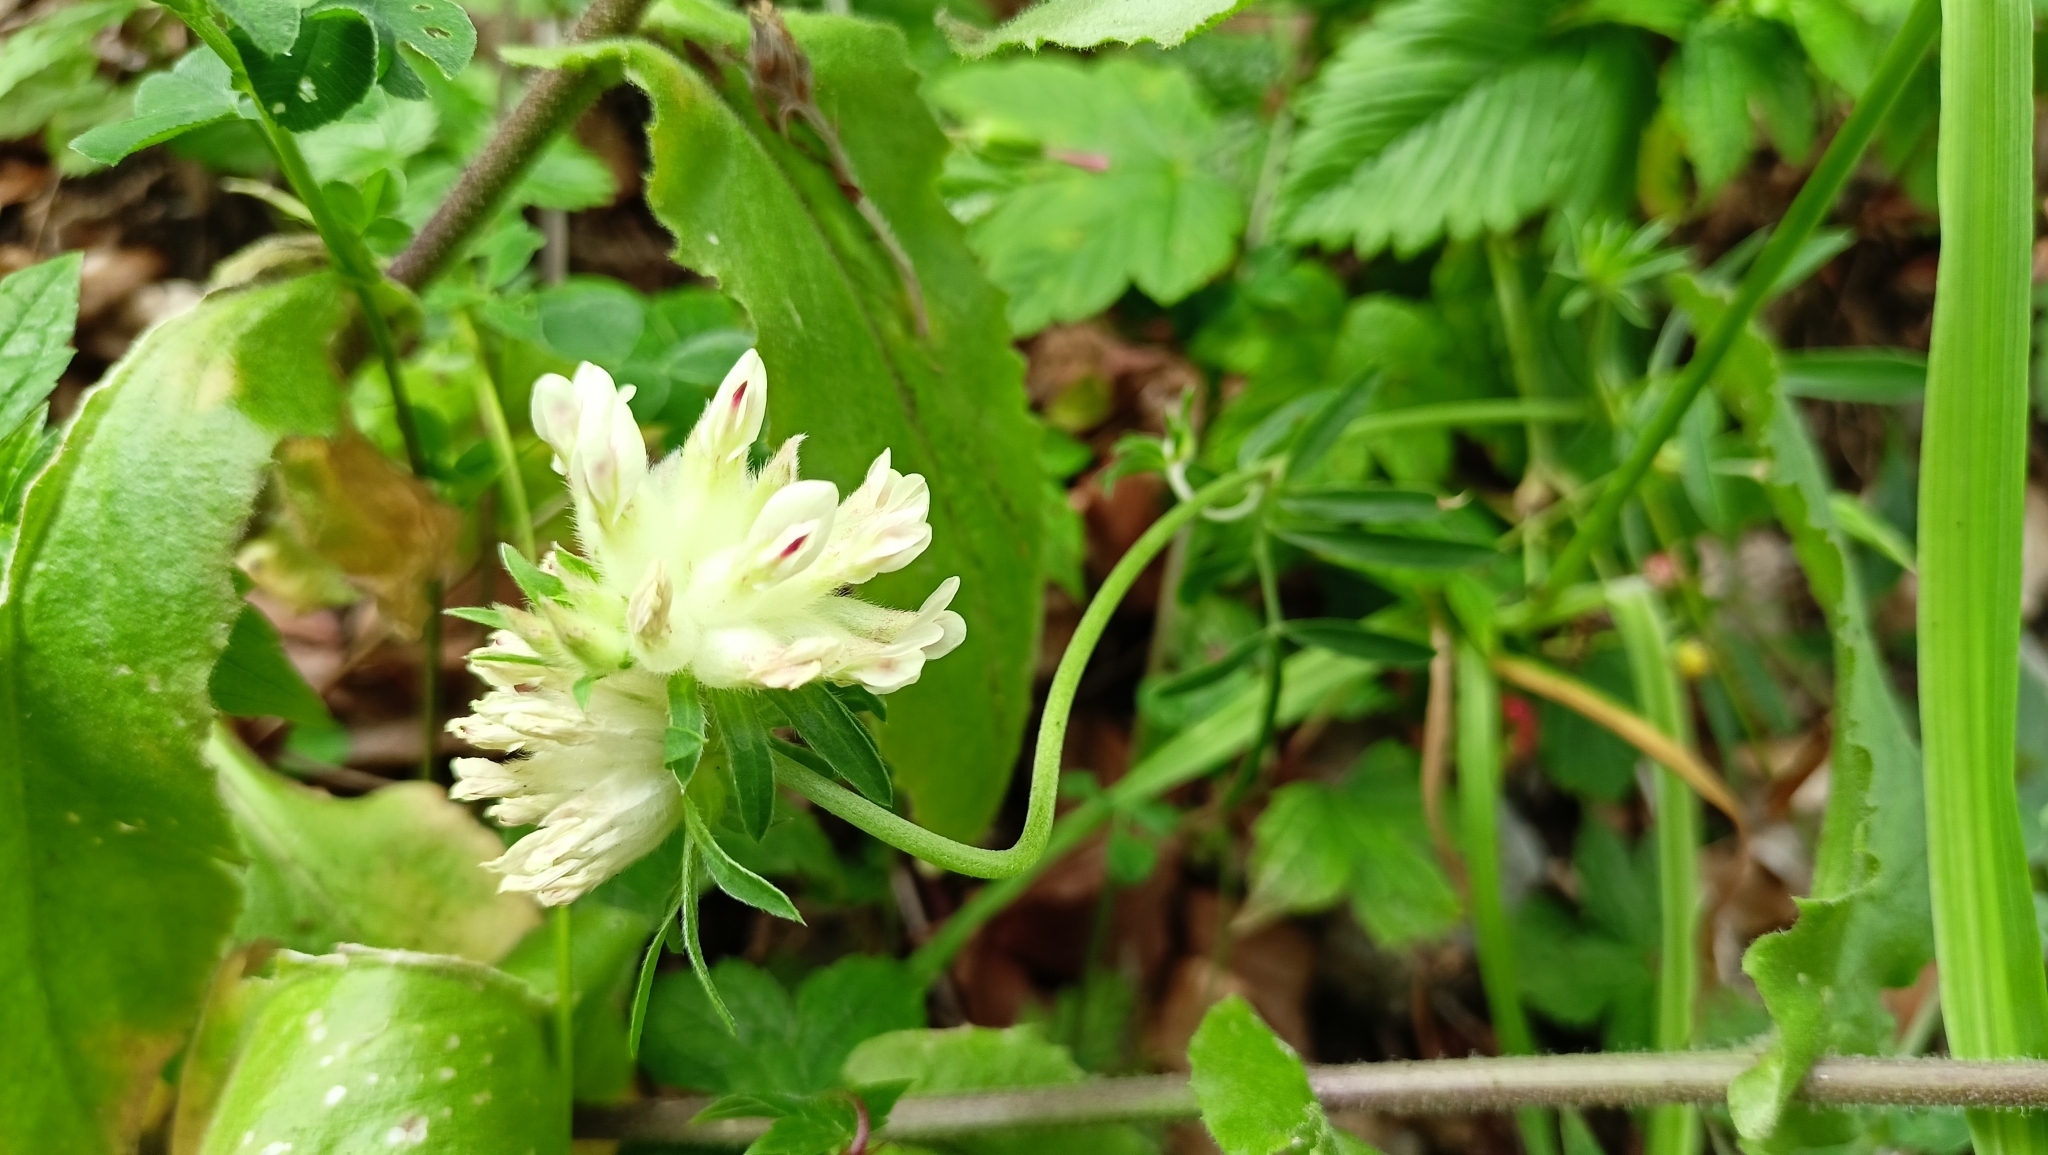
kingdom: Plantae
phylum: Tracheophyta
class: Magnoliopsida
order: Fabales
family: Fabaceae
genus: Anthyllis
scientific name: Anthyllis vulneraria
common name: Kidney vetch
